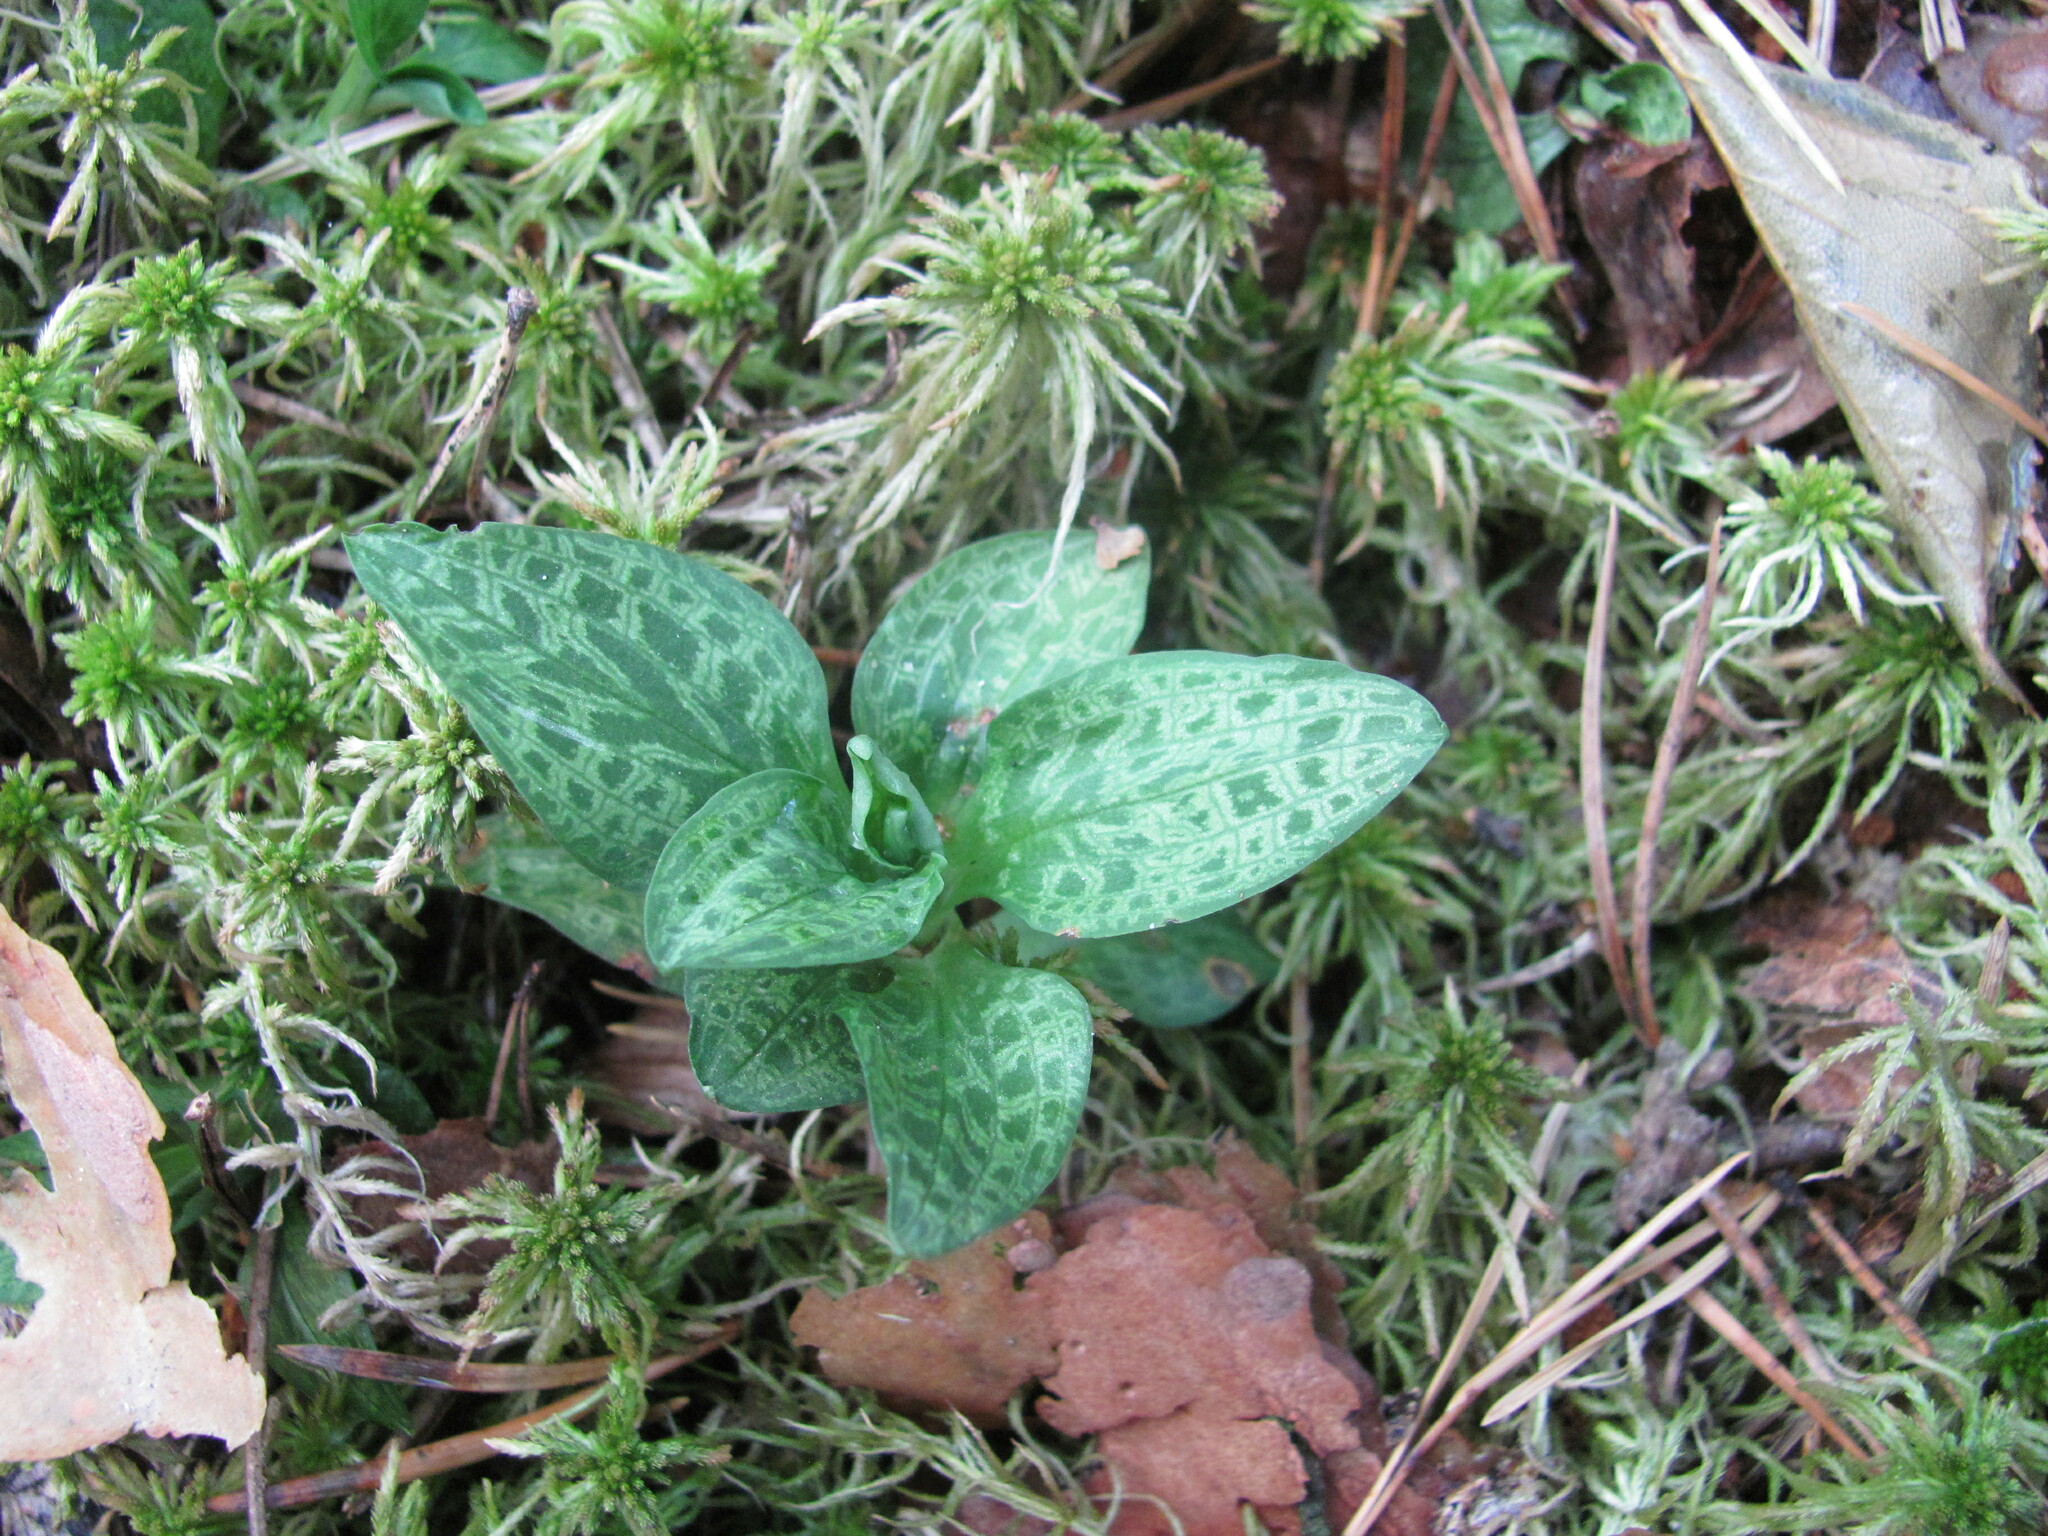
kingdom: Plantae
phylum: Tracheophyta
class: Liliopsida
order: Asparagales
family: Orchidaceae
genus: Goodyera
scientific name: Goodyera repens
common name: Creeping lady's-tresses
